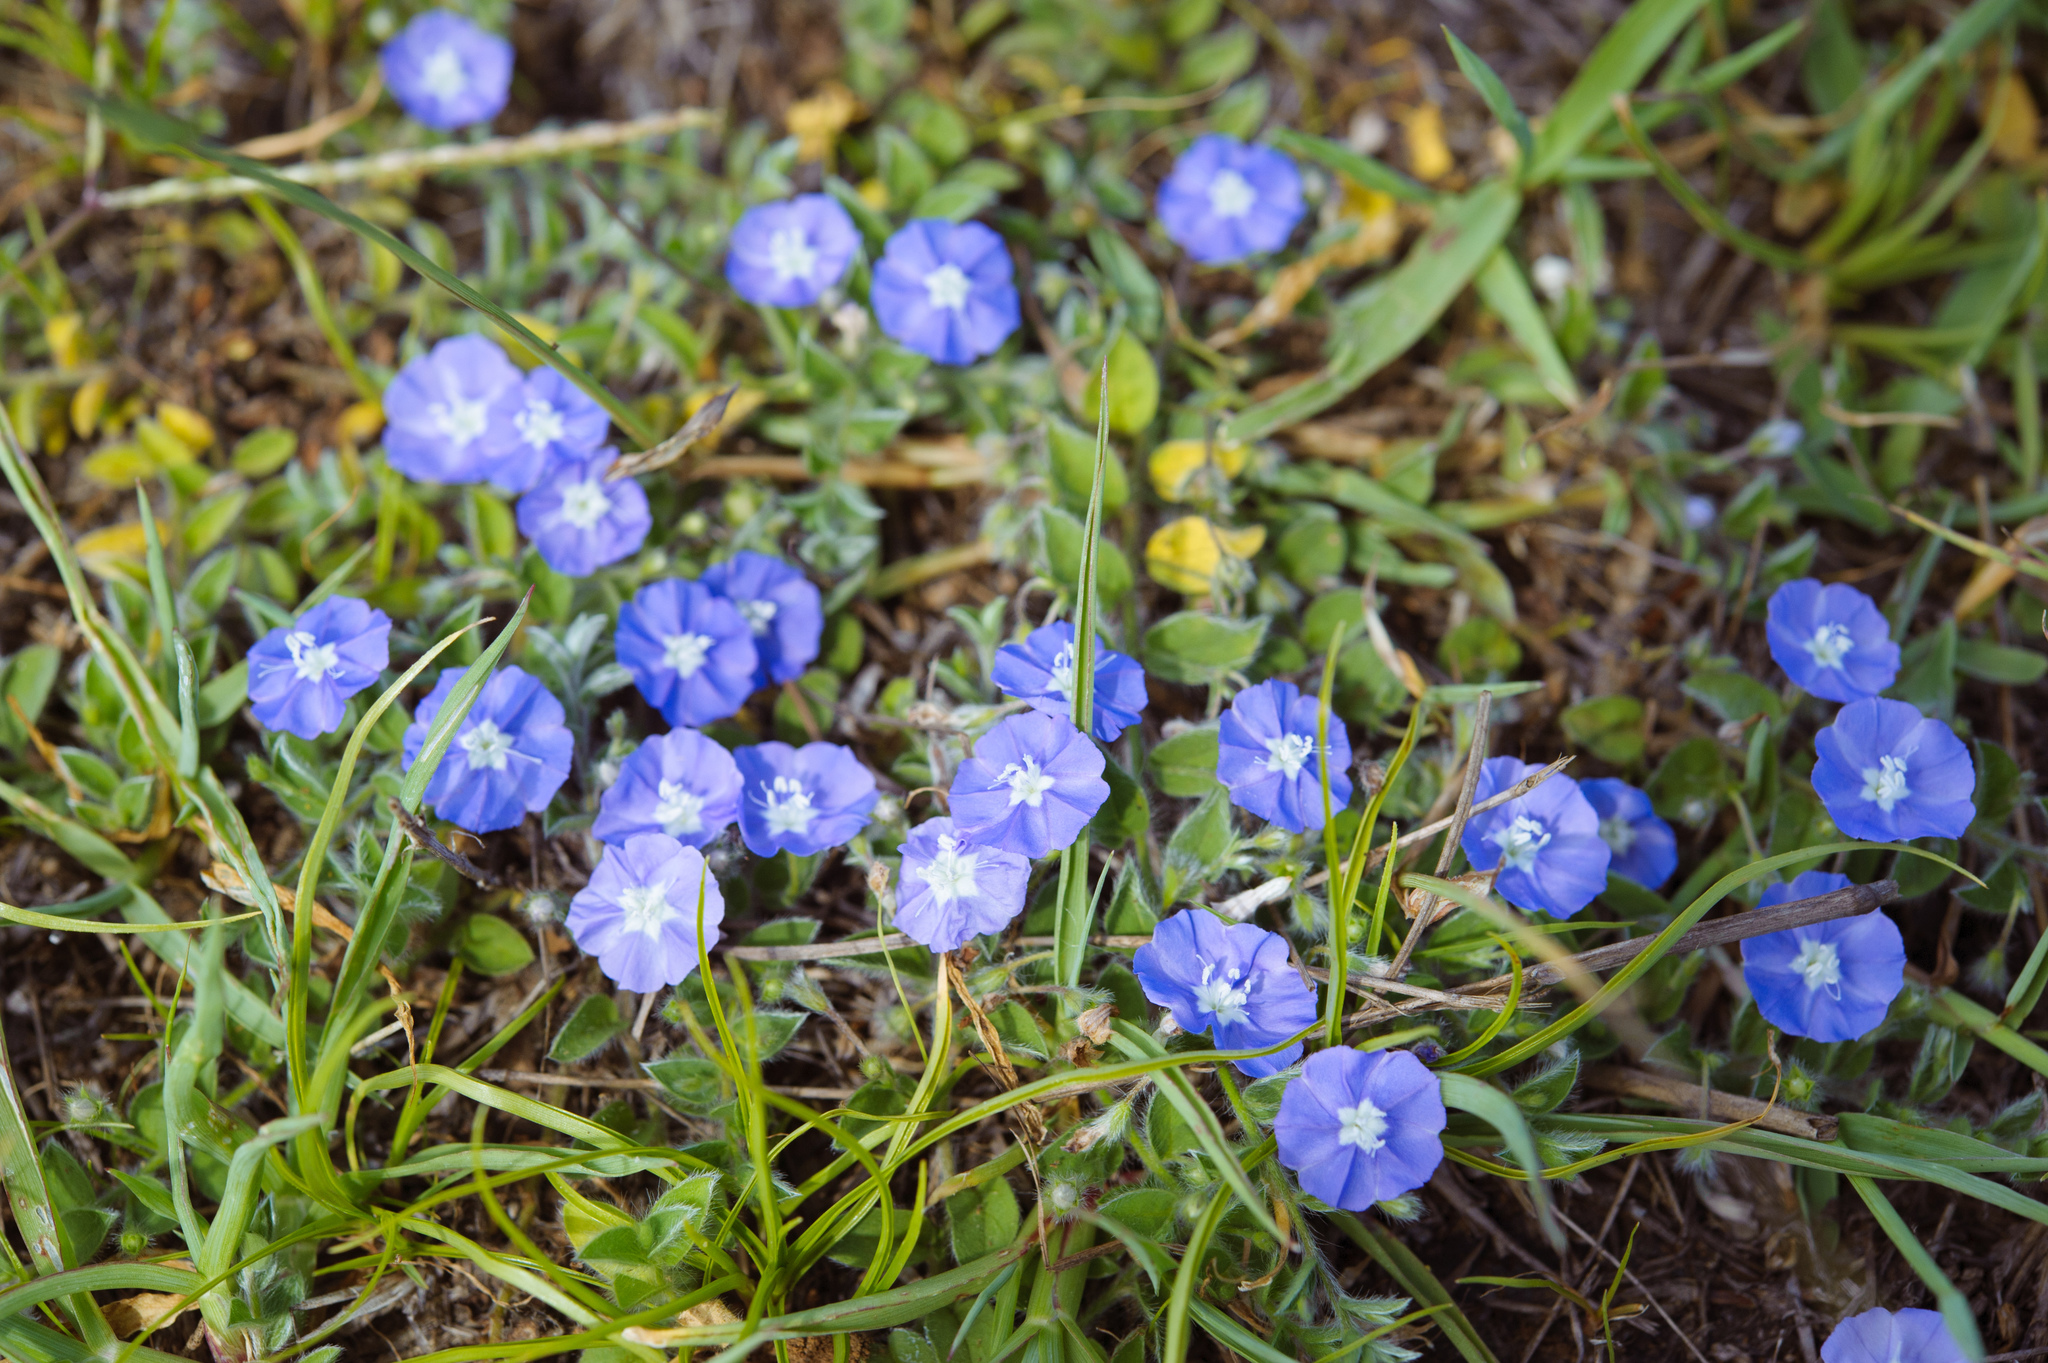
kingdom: Plantae
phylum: Tracheophyta
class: Magnoliopsida
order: Solanales
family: Convolvulaceae
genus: Evolvulus
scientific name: Evolvulus alsinoides
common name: Slender dwarf morning-glory
